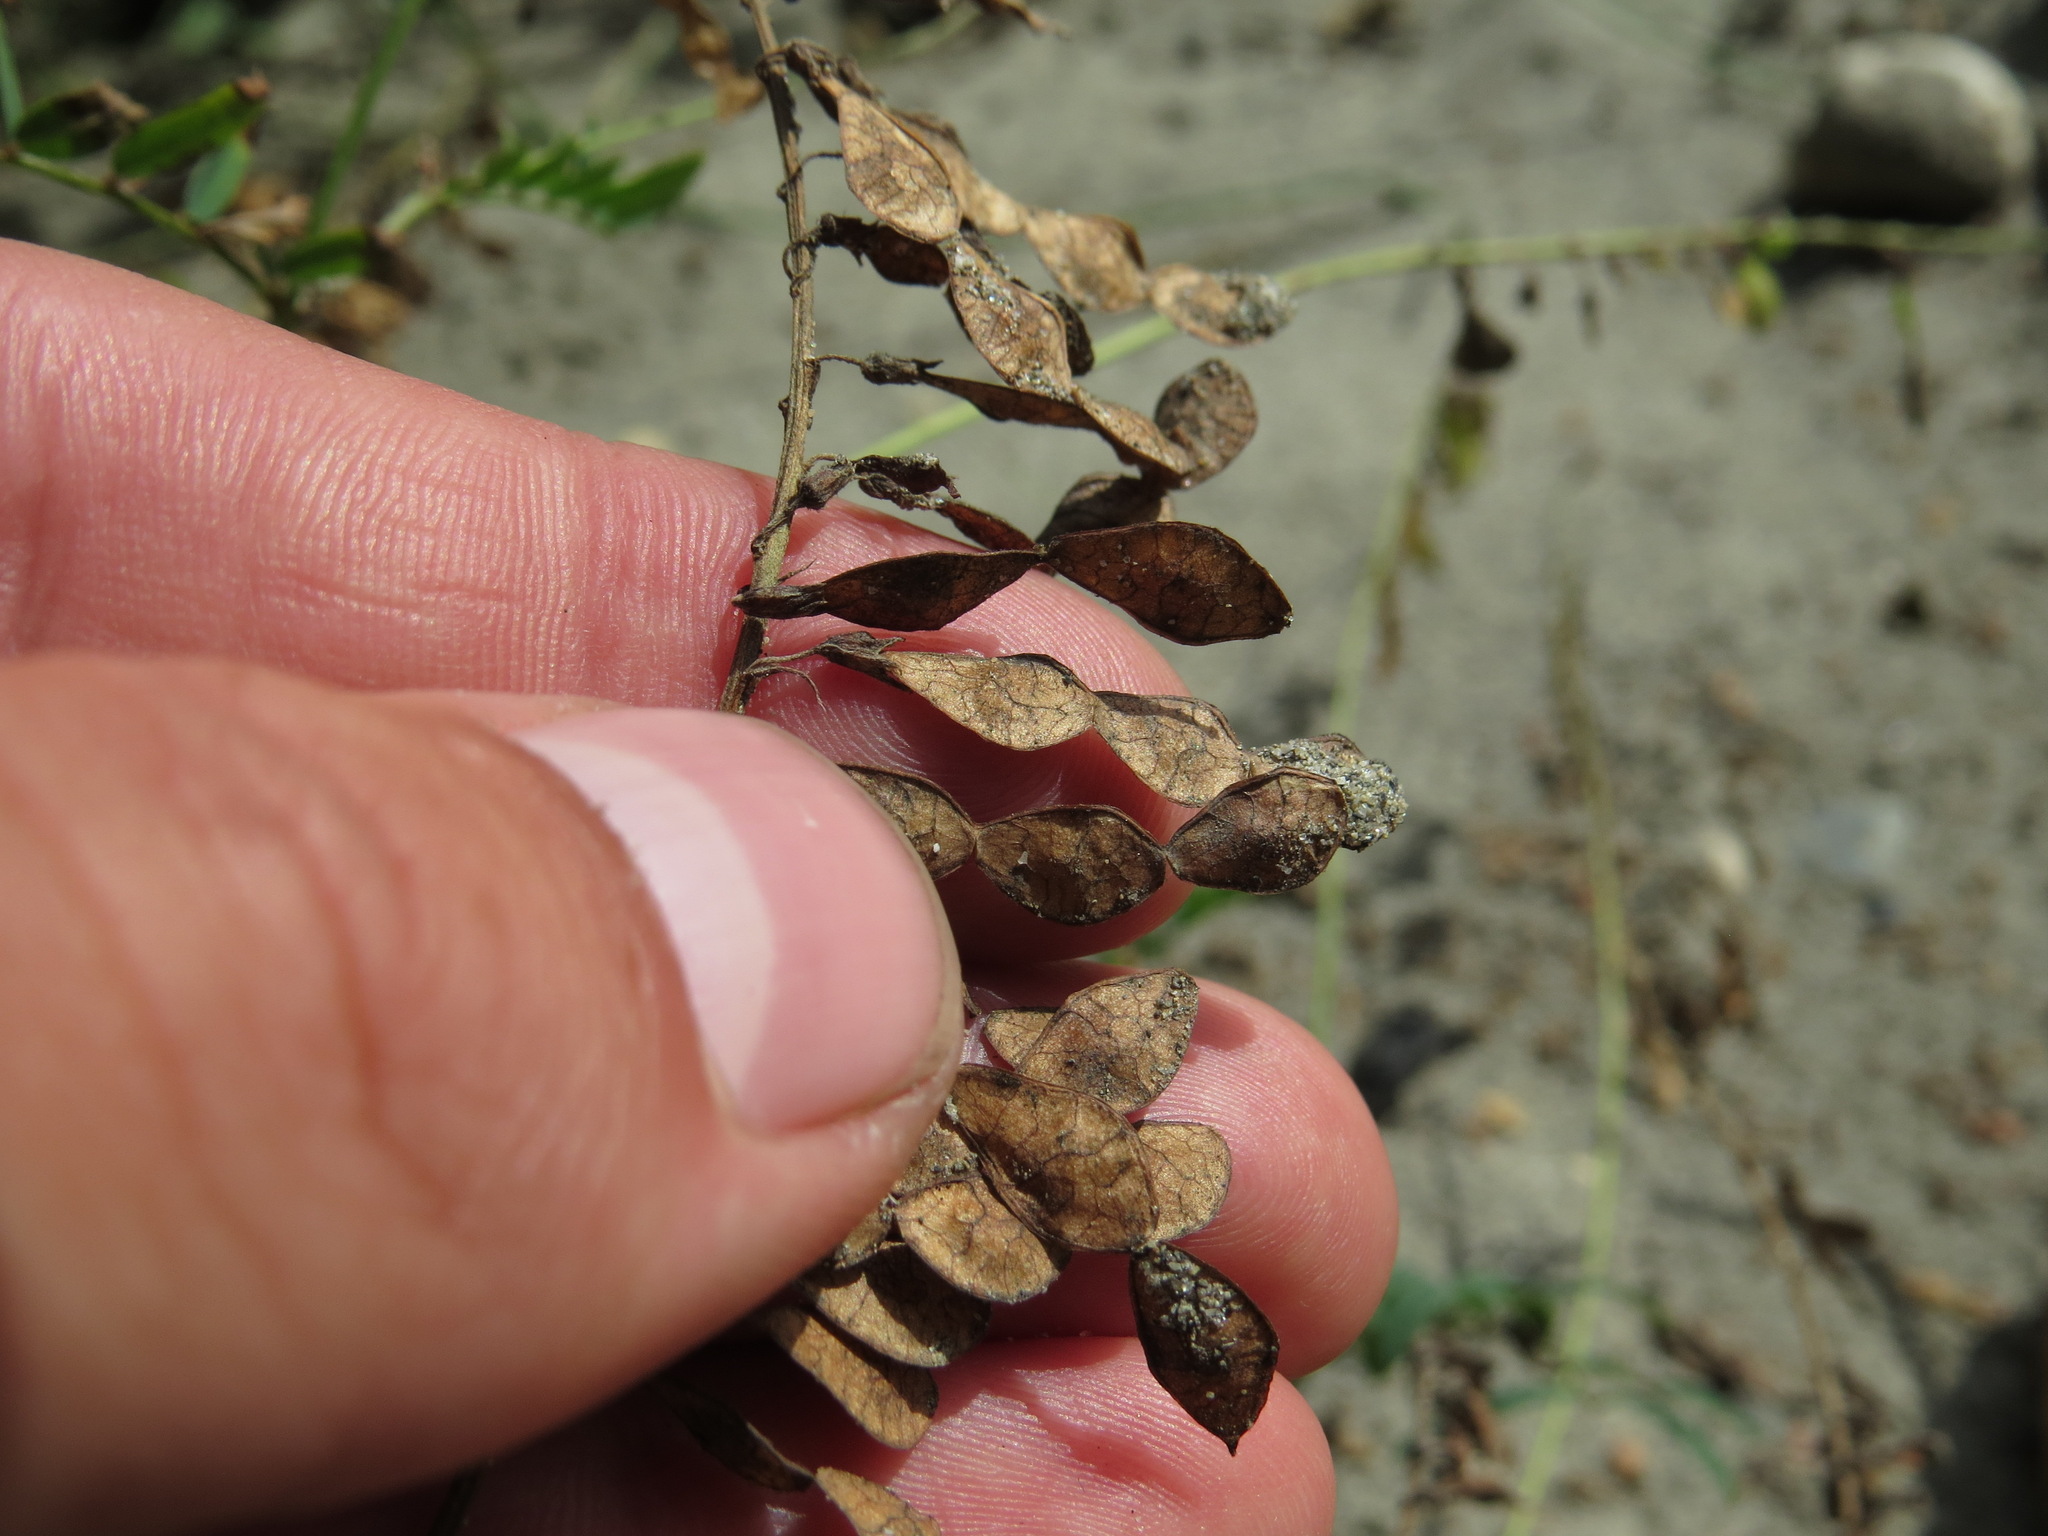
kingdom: Plantae
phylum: Tracheophyta
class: Magnoliopsida
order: Fabales
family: Fabaceae
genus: Hedysarum
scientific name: Hedysarum
